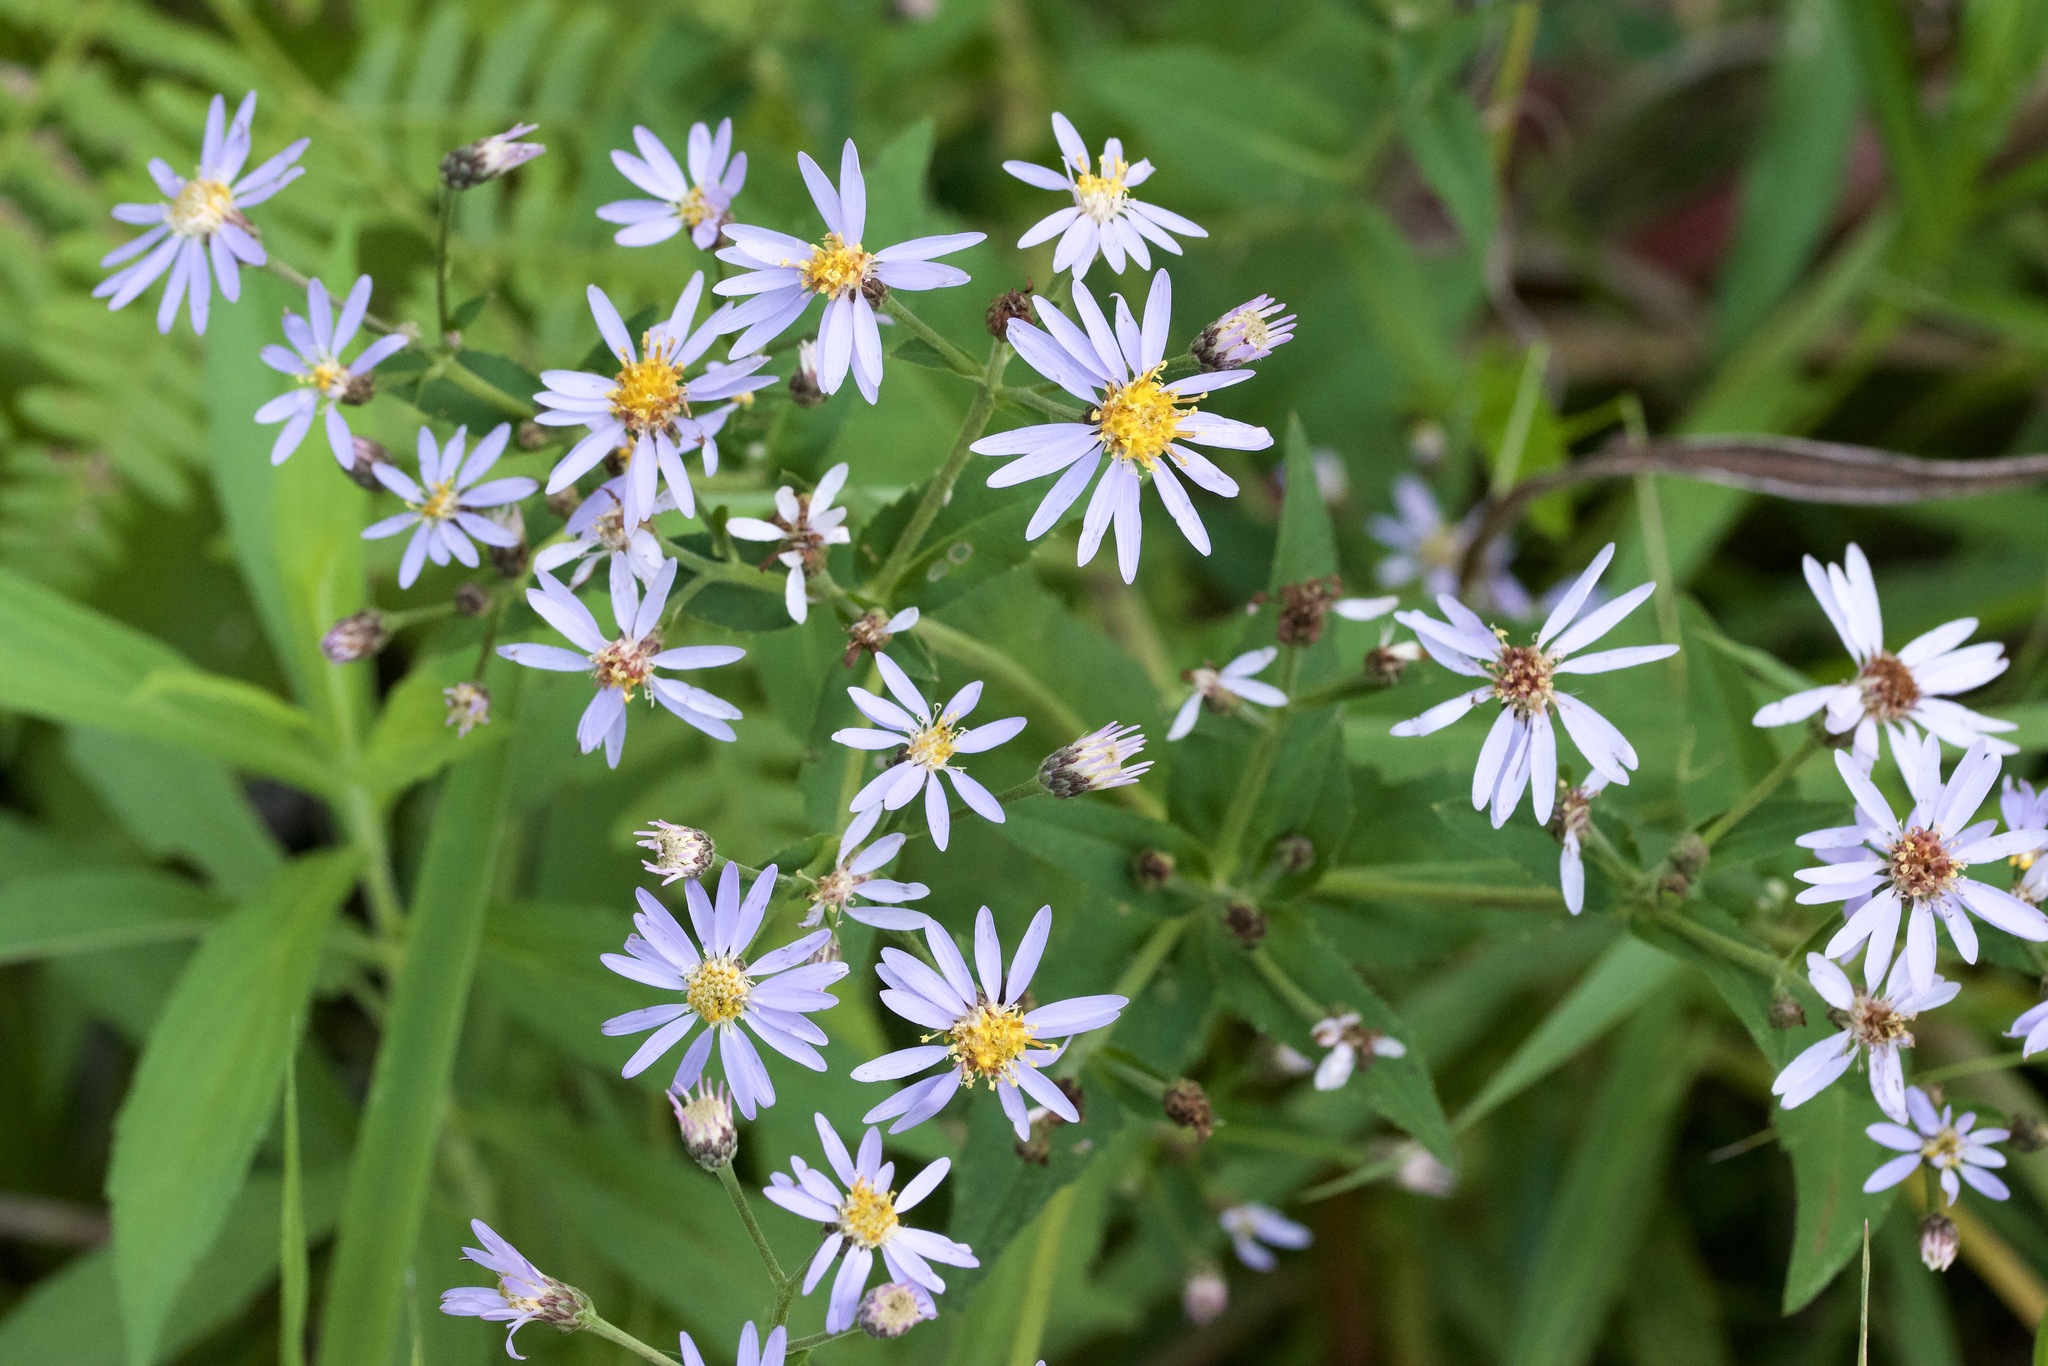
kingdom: Plantae
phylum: Tracheophyta
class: Magnoliopsida
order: Asterales
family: Asteraceae
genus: Eurybia
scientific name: Eurybia macrophylla
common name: Big-leaved aster
